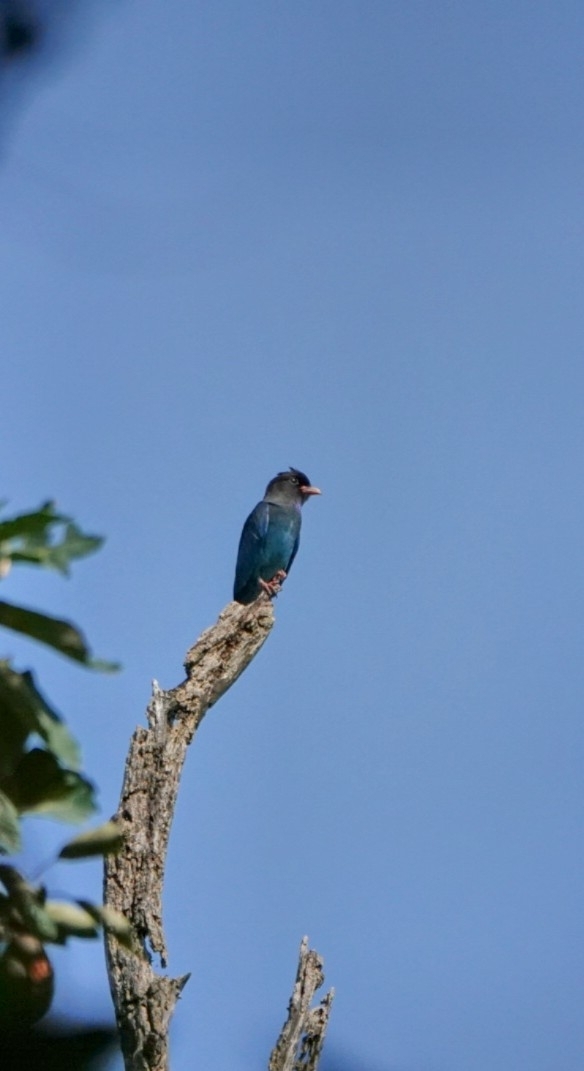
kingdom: Animalia
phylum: Chordata
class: Aves
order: Coraciiformes
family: Coraciidae
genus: Eurystomus
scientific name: Eurystomus orientalis
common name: Oriental dollarbird
